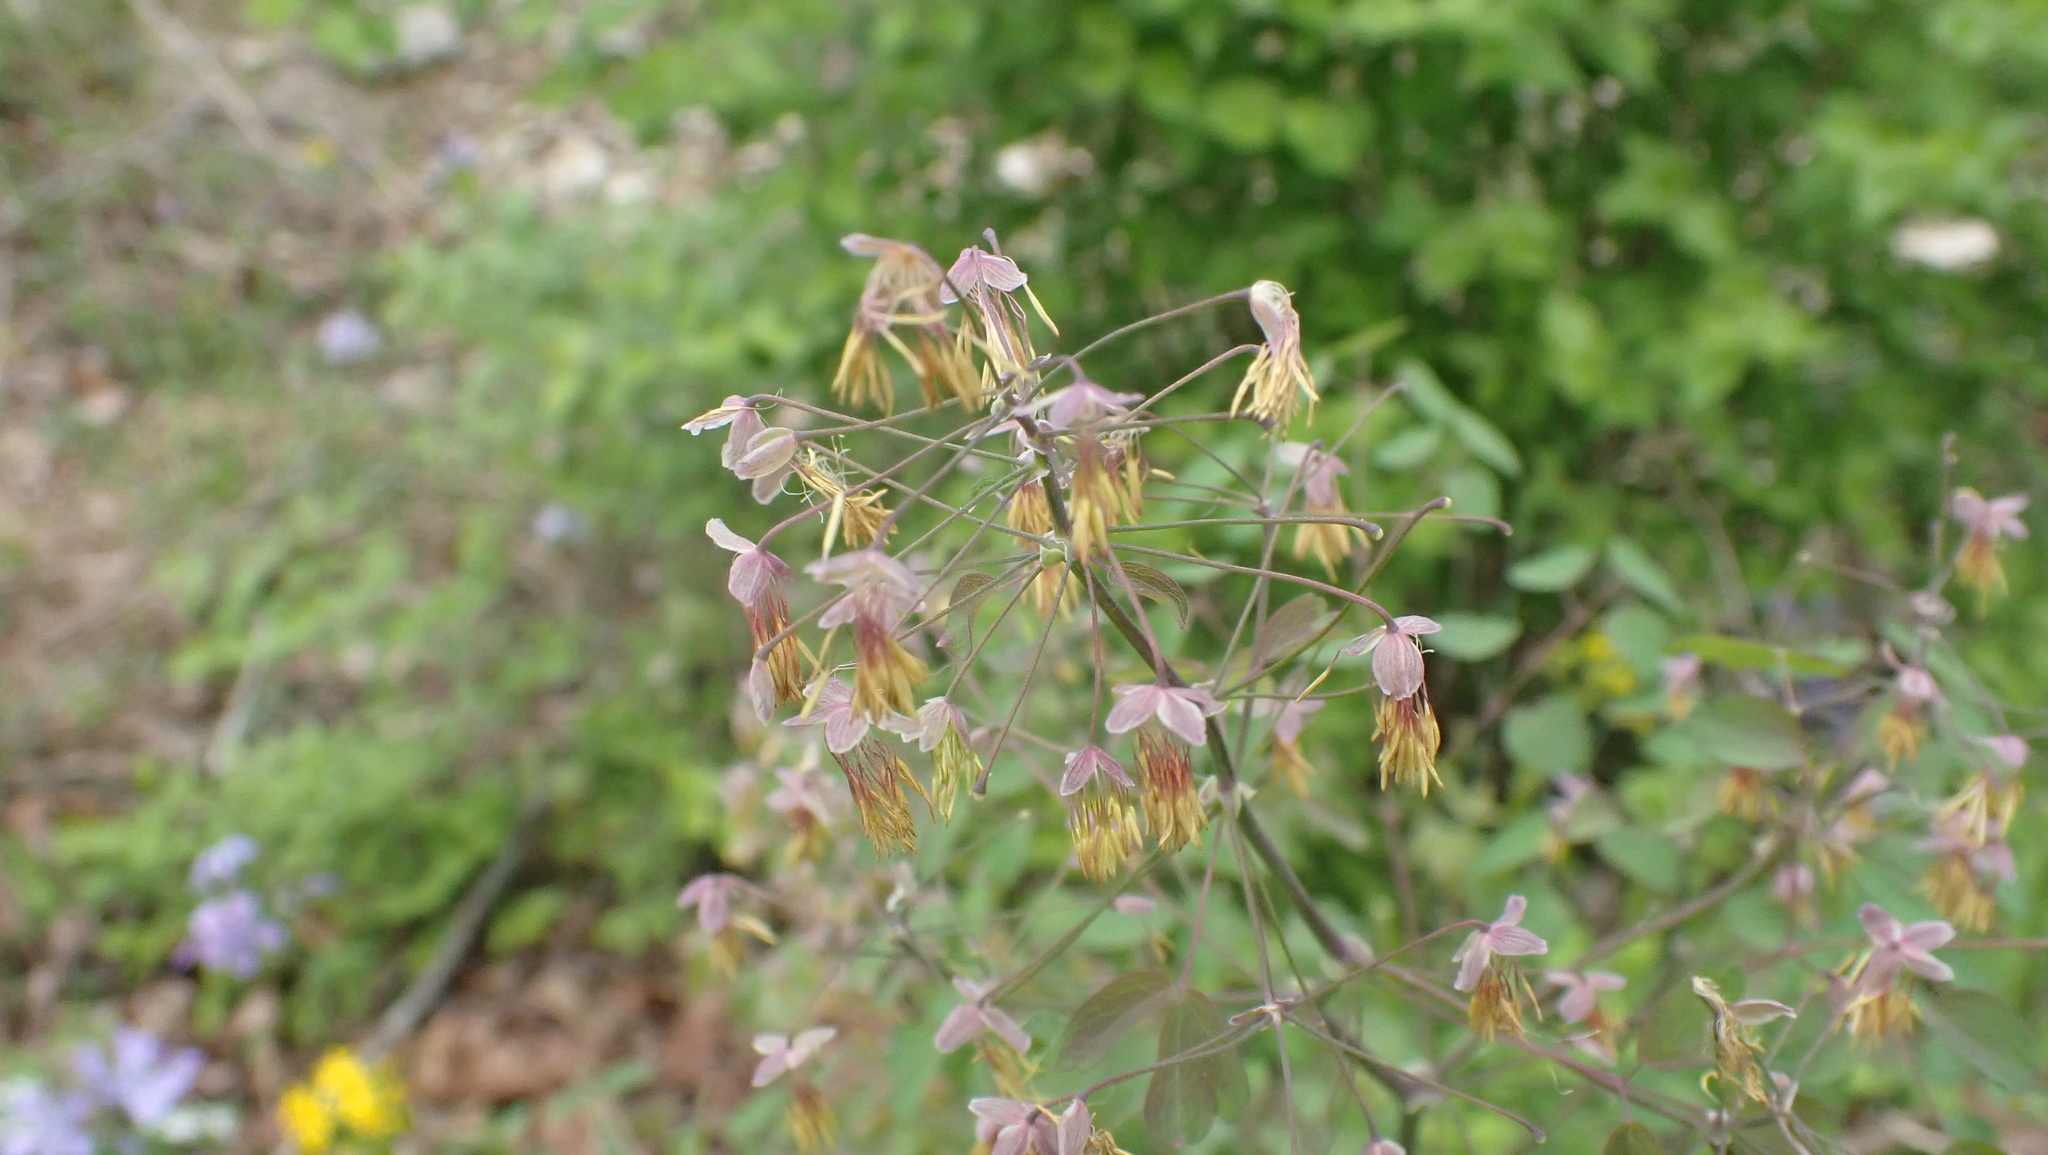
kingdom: Plantae
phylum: Tracheophyta
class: Magnoliopsida
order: Ranunculales
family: Ranunculaceae
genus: Thalictrum
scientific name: Thalictrum dioicum
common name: Early meadow-rue
